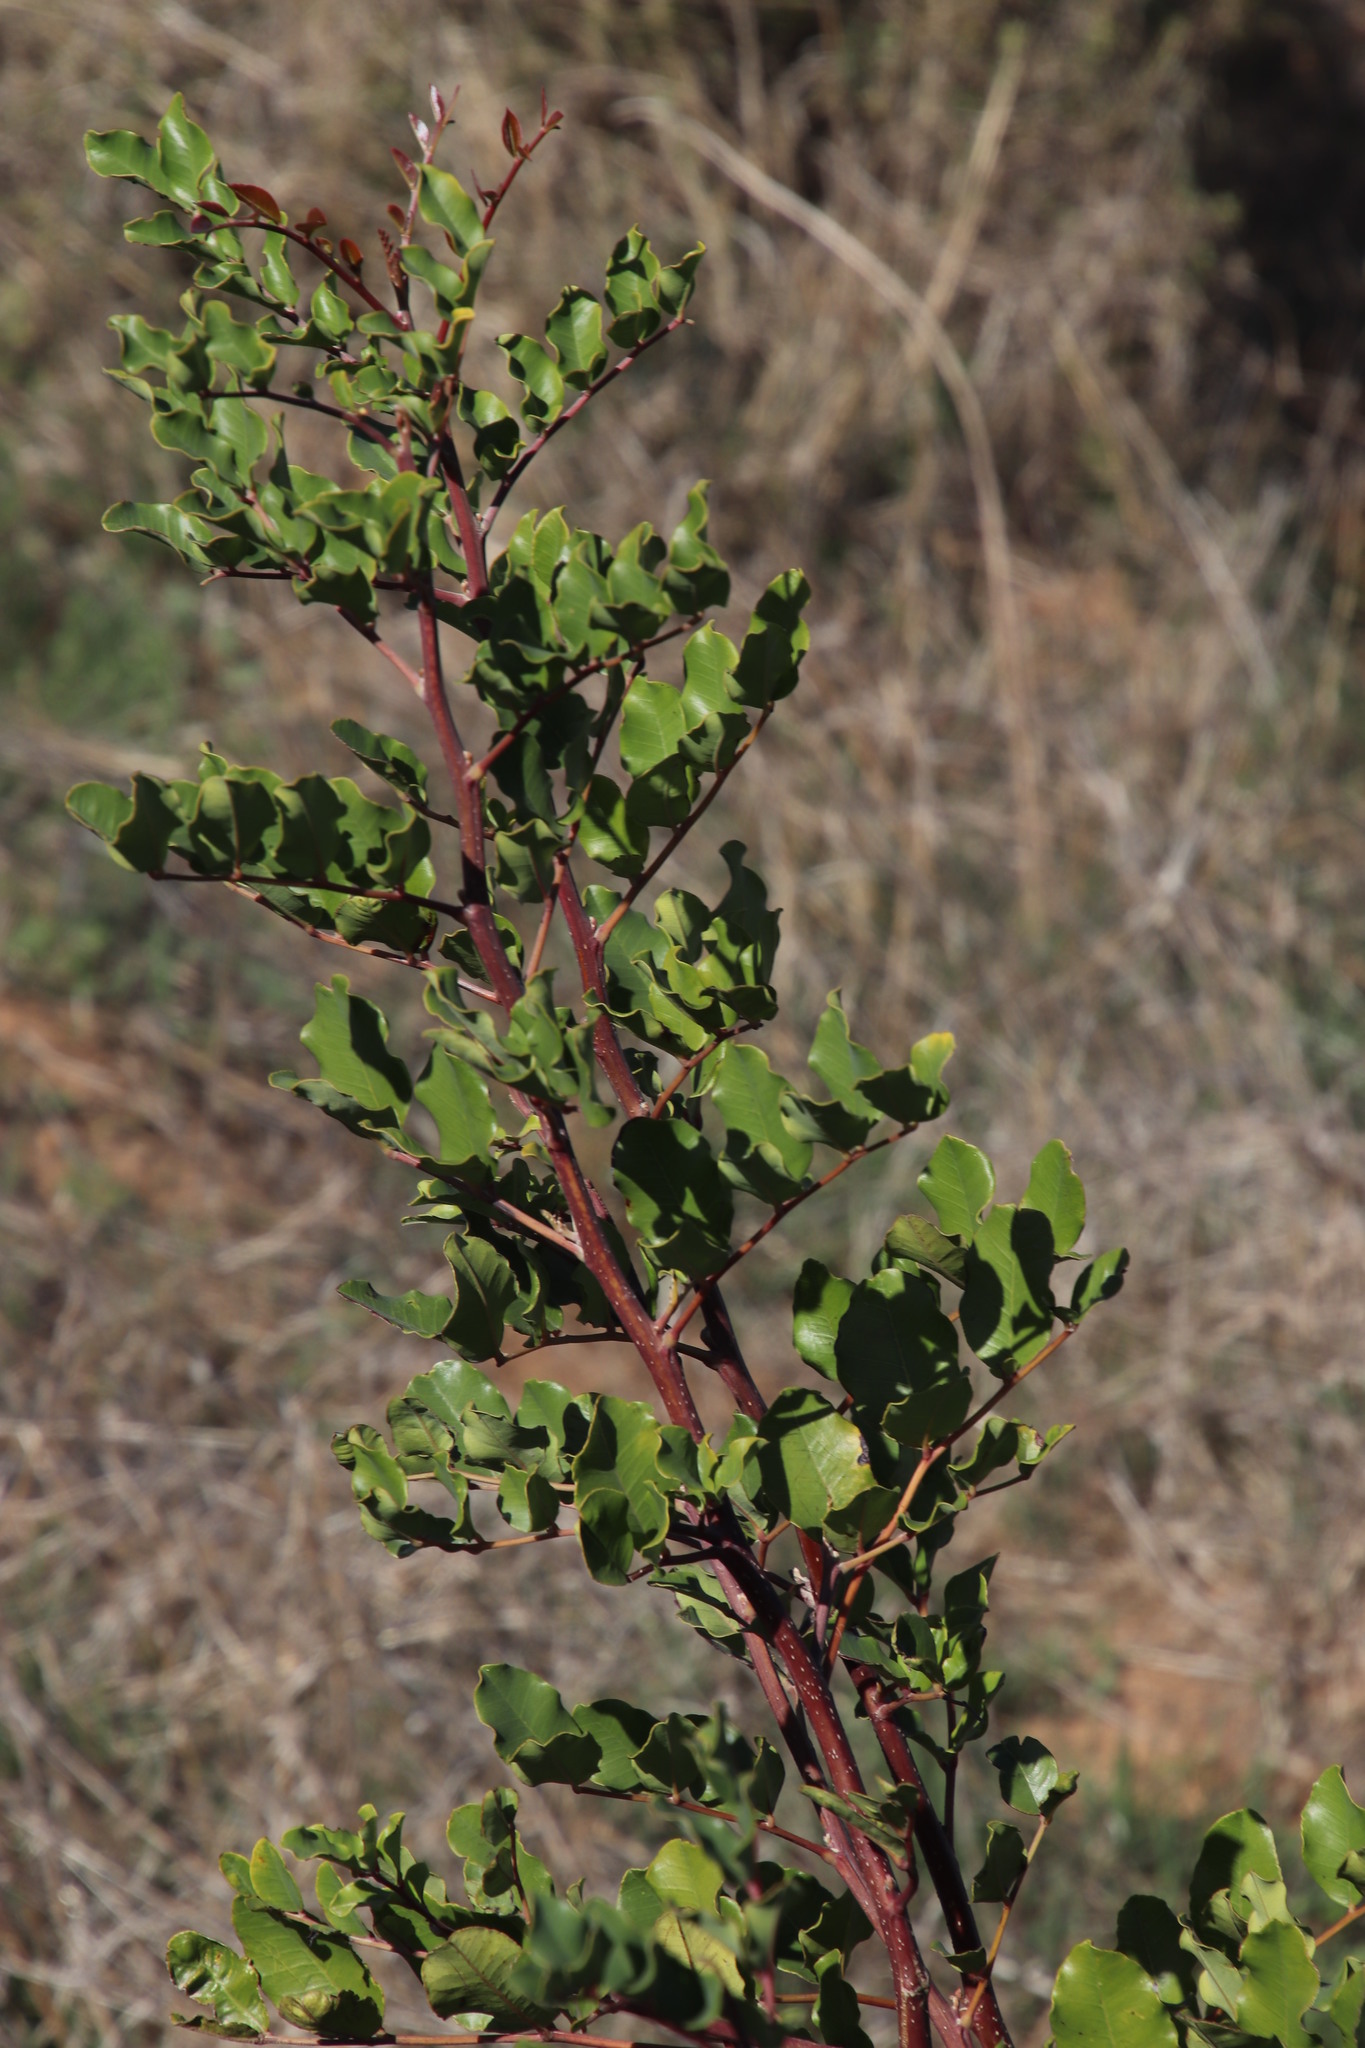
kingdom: Plantae
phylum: Tracheophyta
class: Magnoliopsida
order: Fabales
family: Fabaceae
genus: Ceratonia
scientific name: Ceratonia siliqua
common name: Carob
